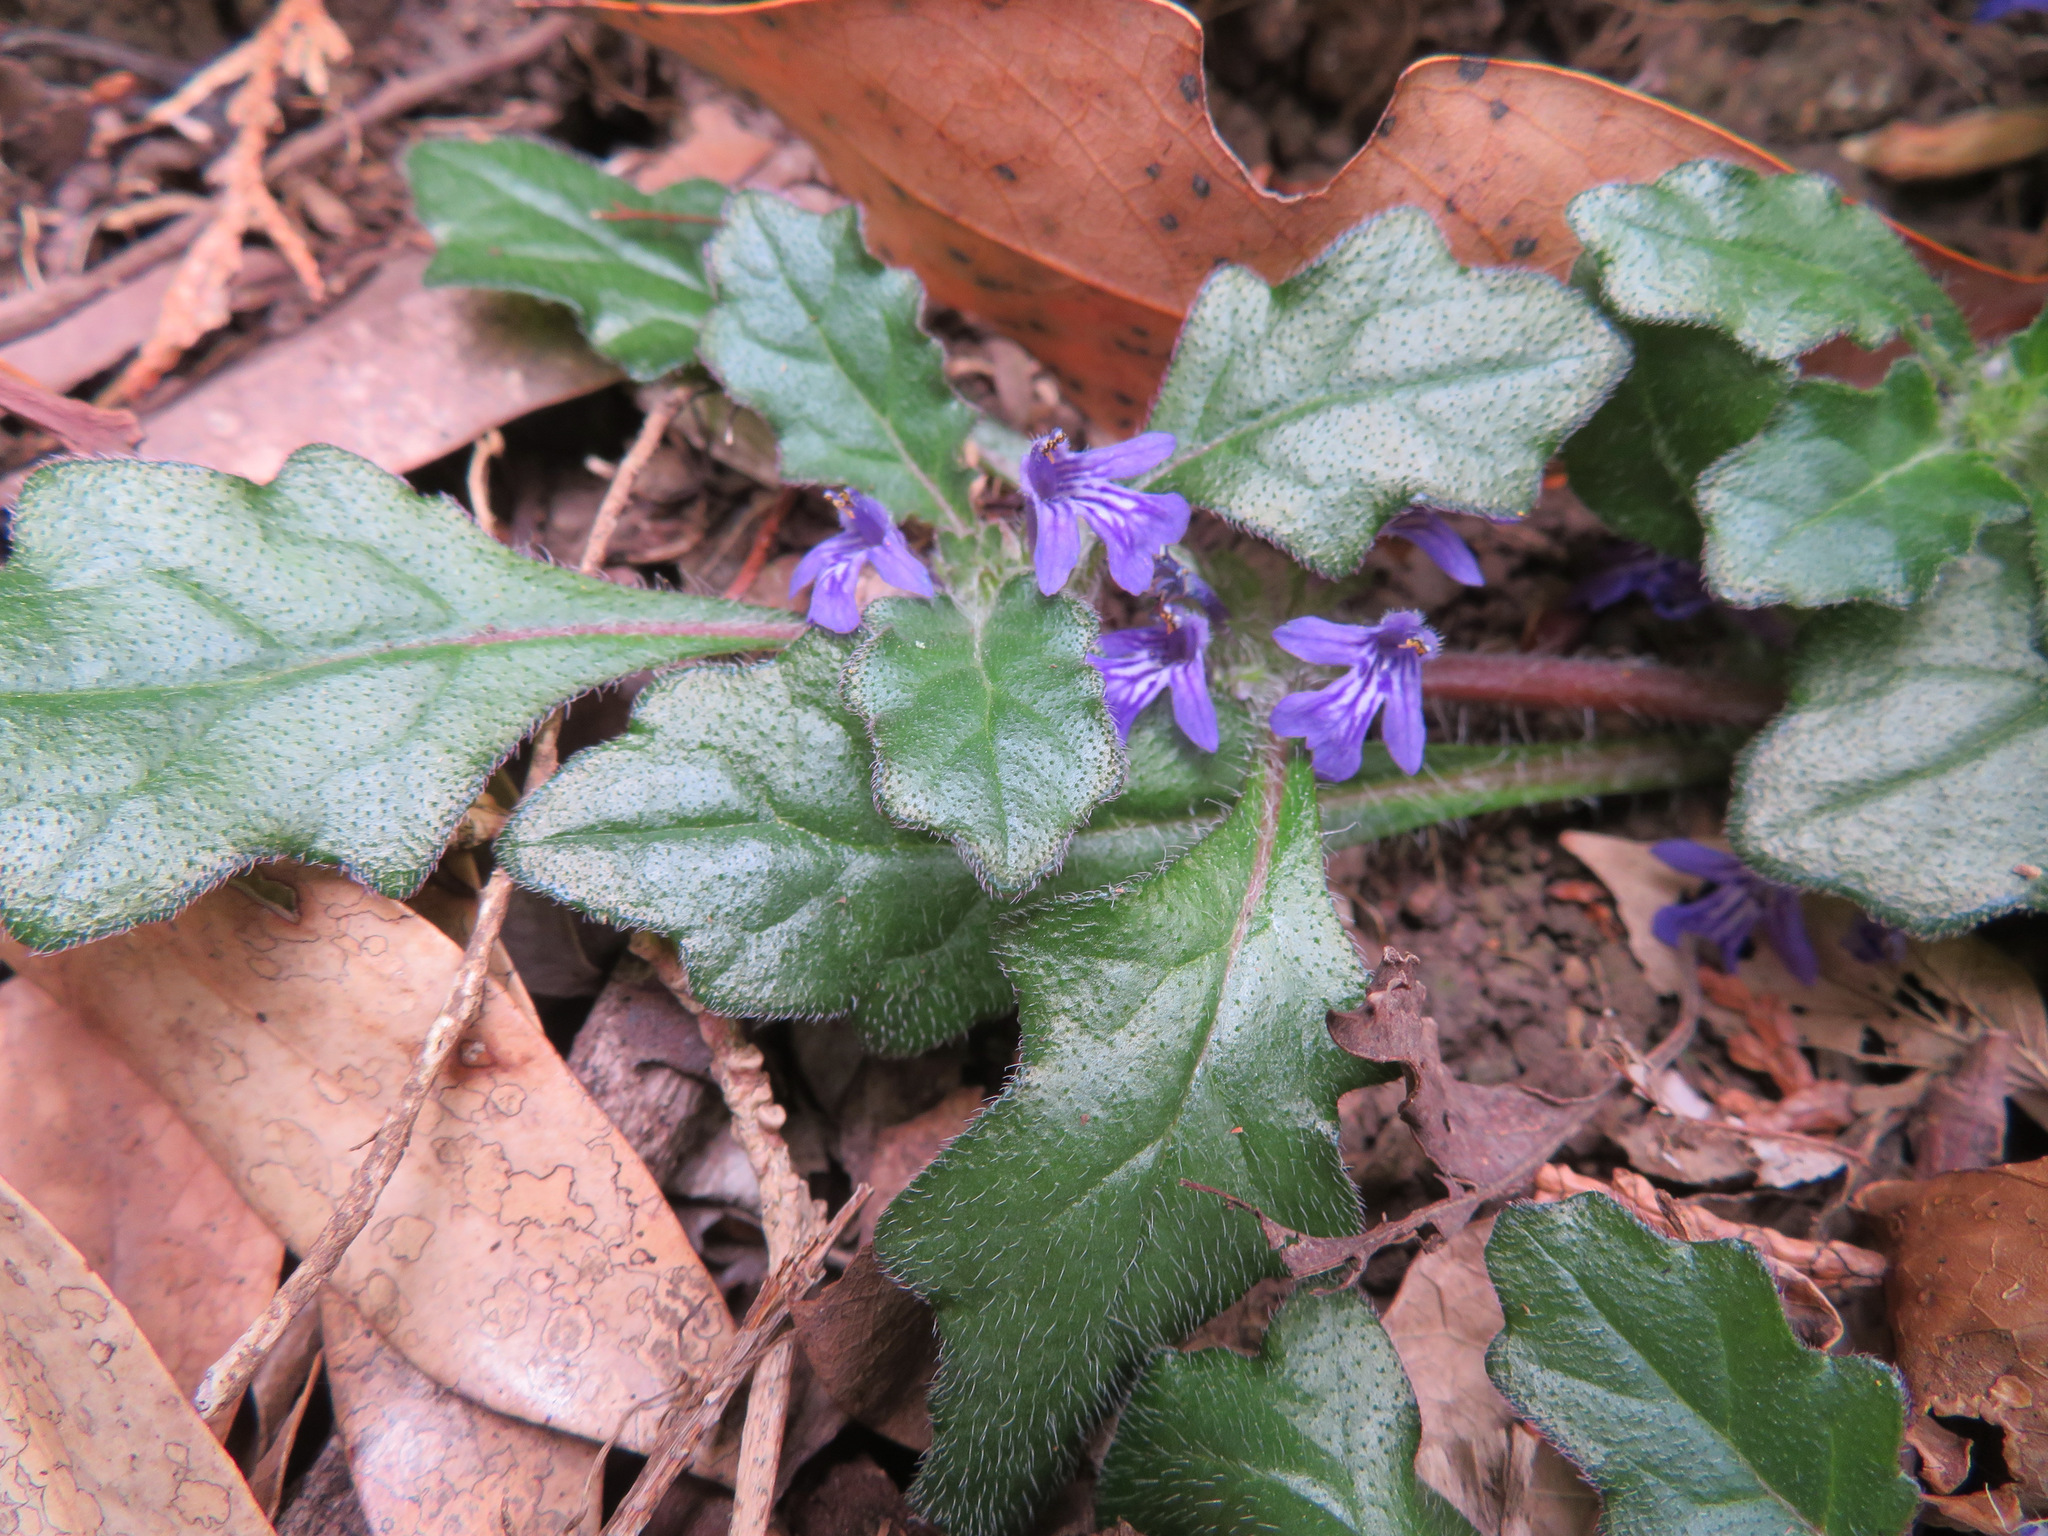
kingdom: Plantae
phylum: Tracheophyta
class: Magnoliopsida
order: Lamiales
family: Lamiaceae
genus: Ajuga
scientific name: Ajuga decumbens
